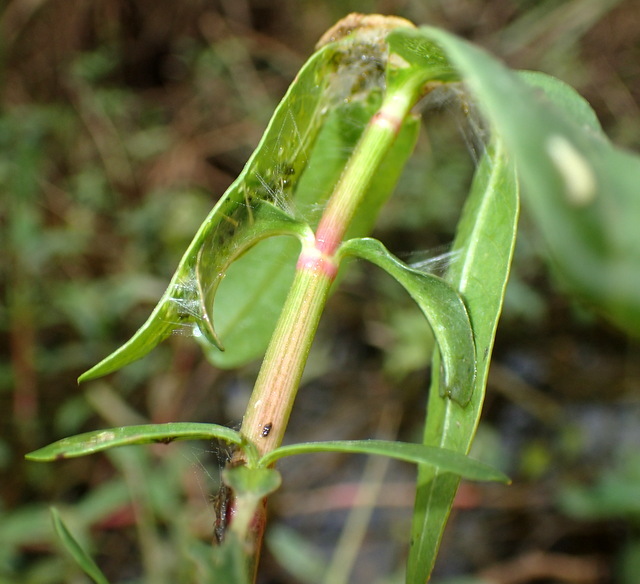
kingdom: Animalia
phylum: Arthropoda
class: Insecta
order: Lepidoptera
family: Crambidae
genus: Herpetogramma
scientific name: Herpetogramma bipunctalis
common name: Southern beet webworm
